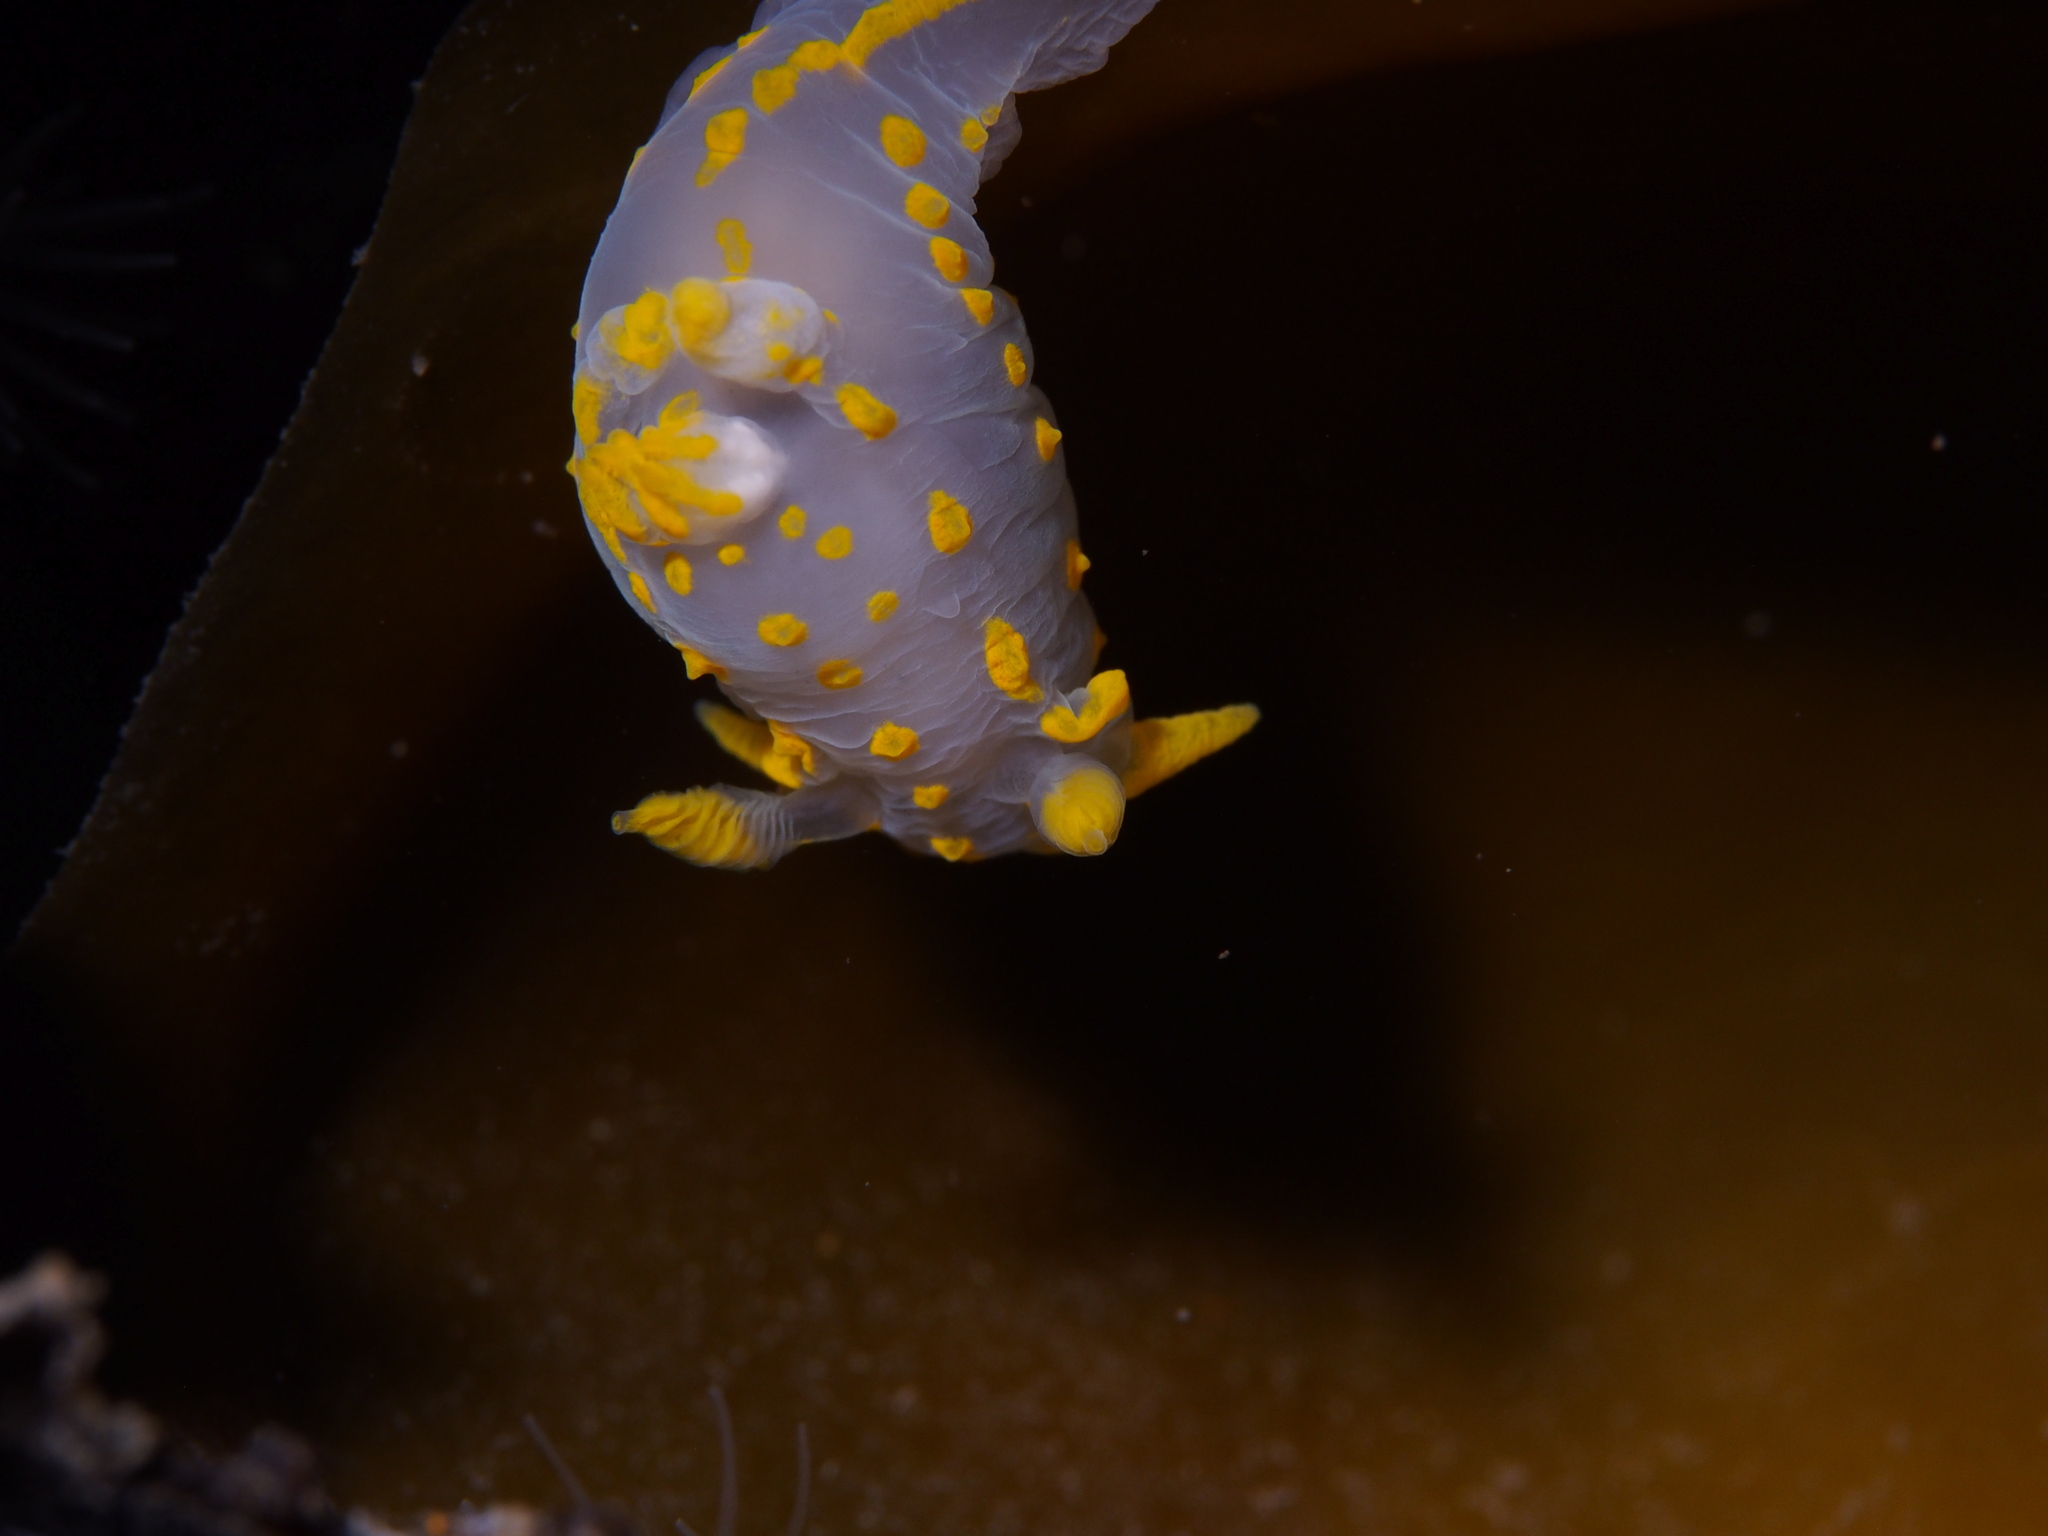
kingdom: Animalia
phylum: Mollusca
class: Gastropoda
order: Nudibranchia
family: Polyceridae
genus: Polycera
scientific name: Polycera quadrilineata
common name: Four-striped polycera
